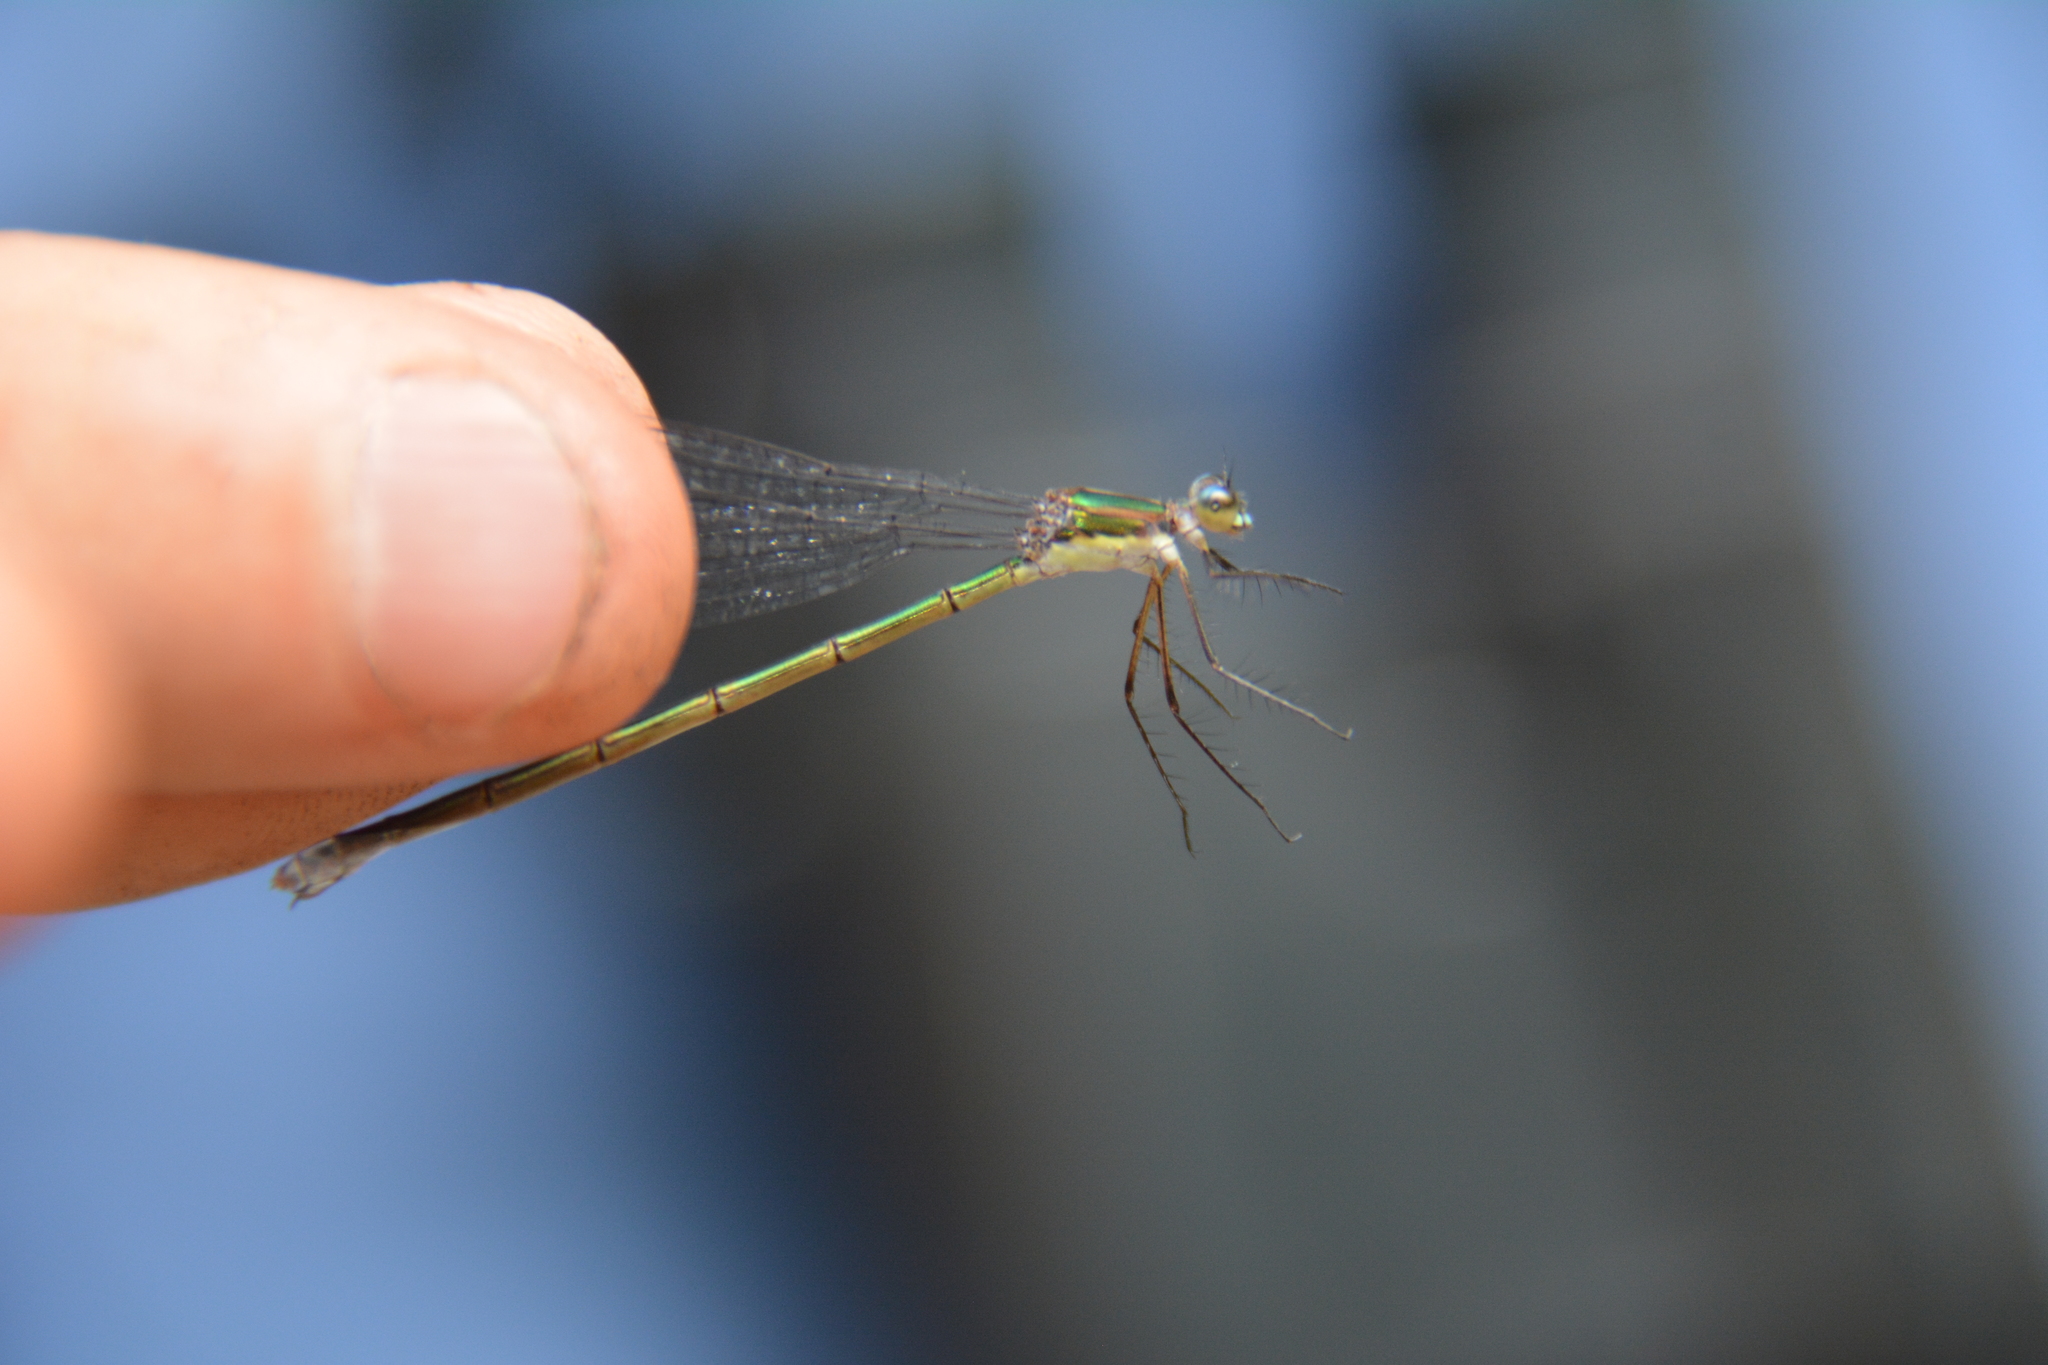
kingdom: Animalia
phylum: Arthropoda
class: Insecta
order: Odonata
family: Lestidae
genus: Lestes
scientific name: Lestes inaequalis
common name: Elegant spreadwing
